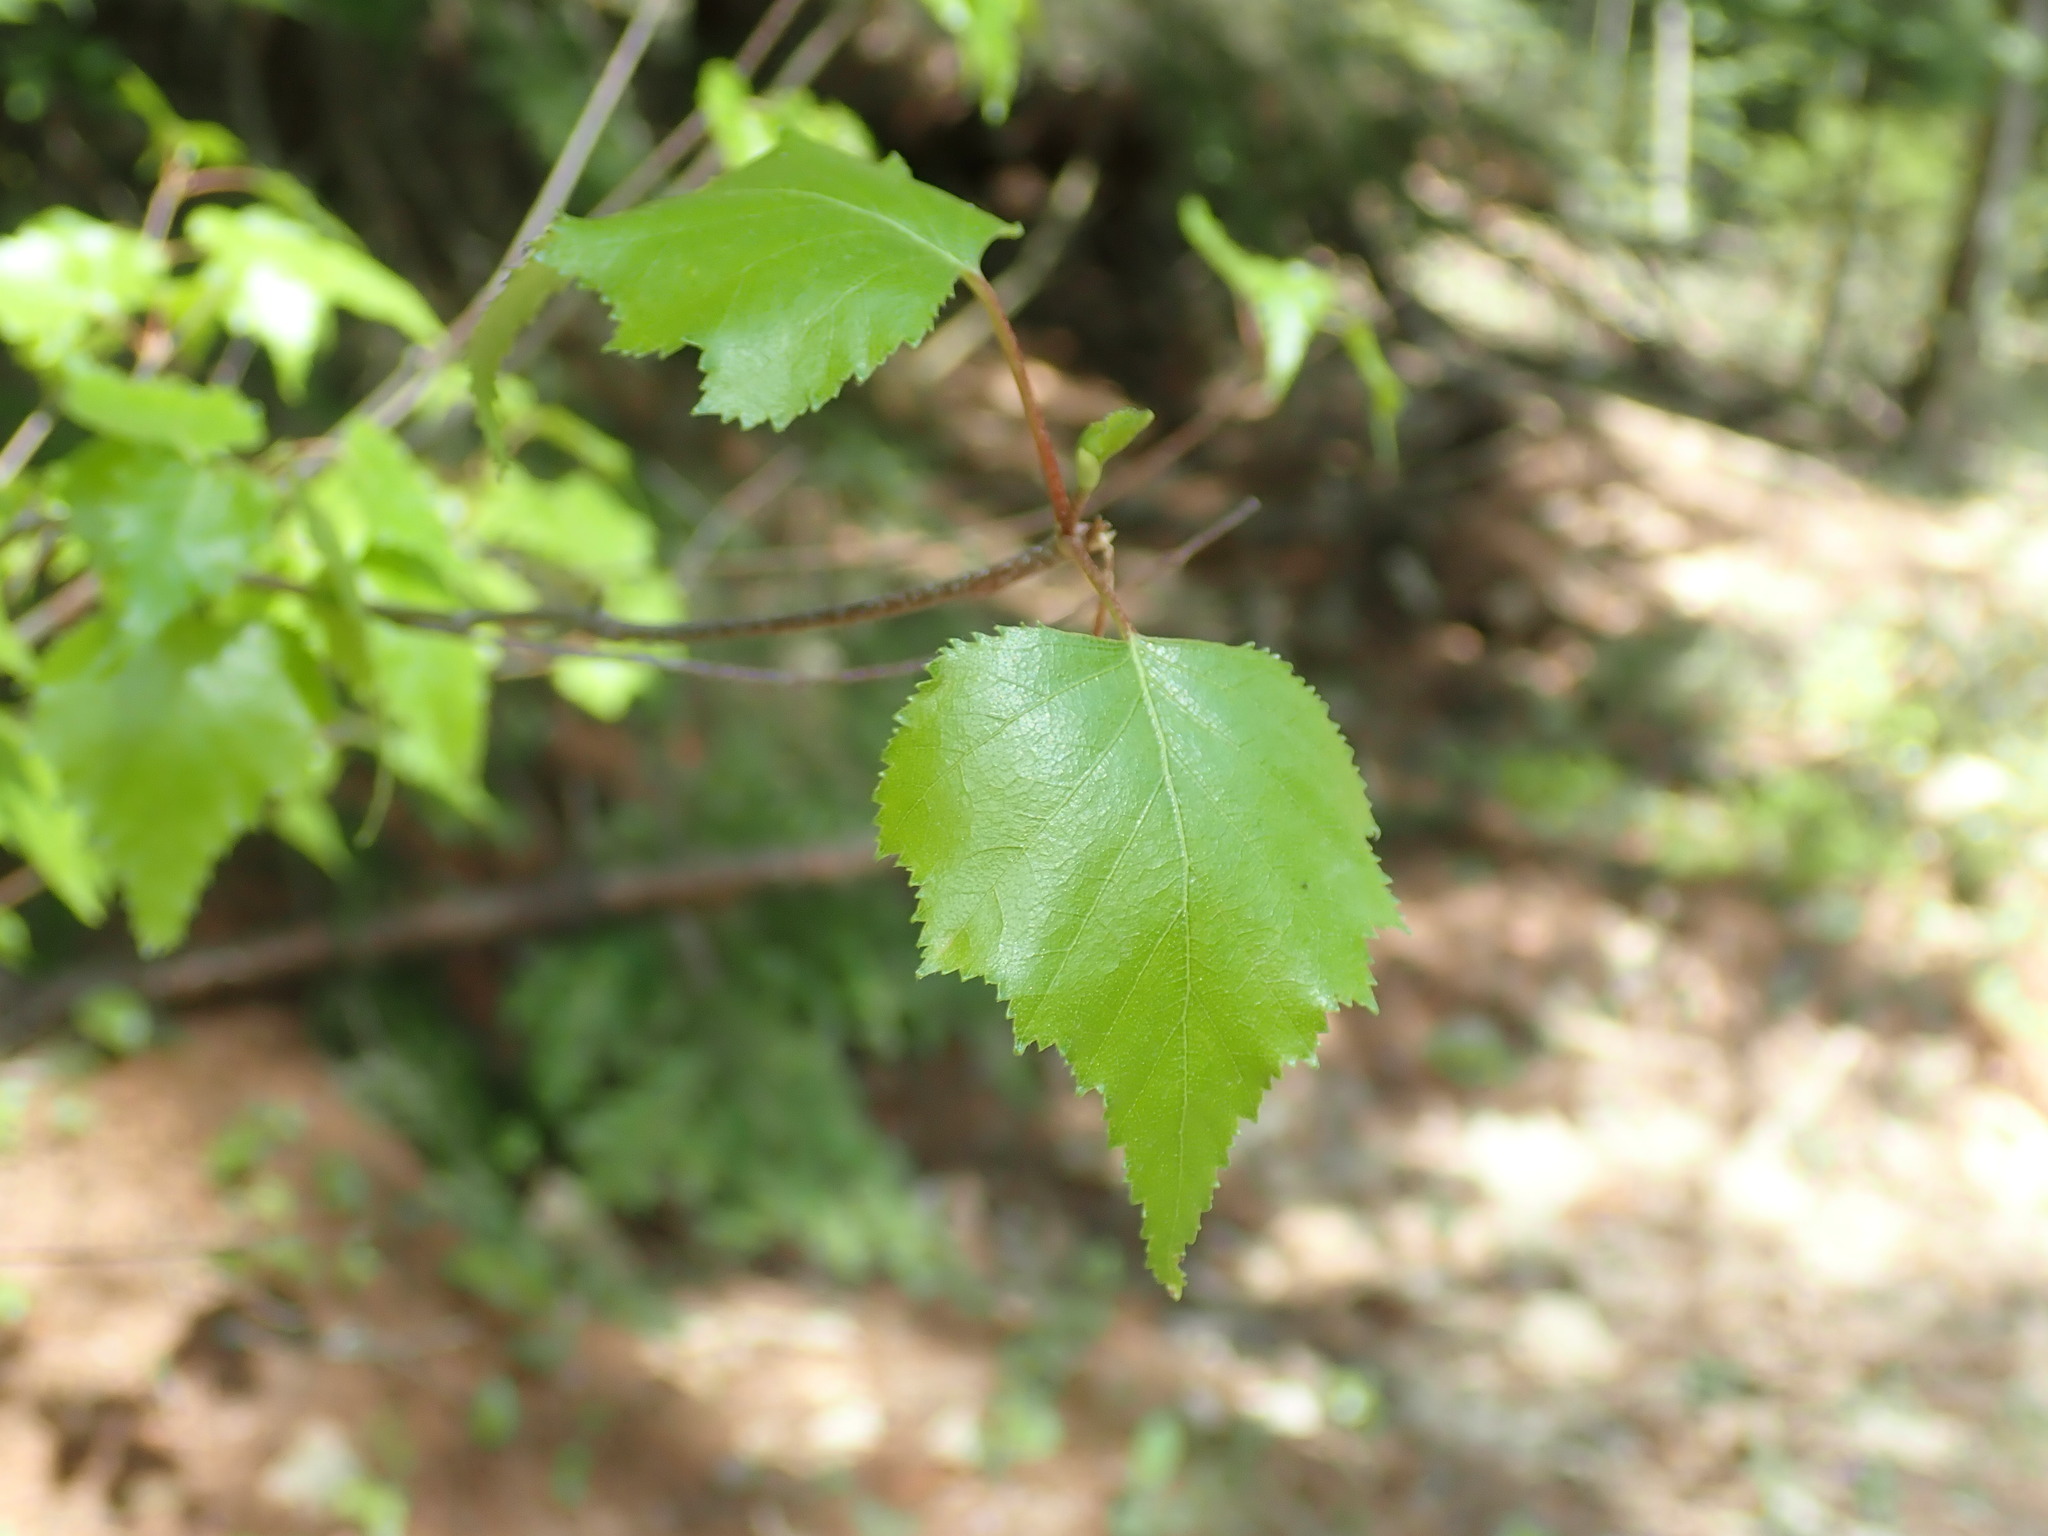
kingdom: Plantae
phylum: Tracheophyta
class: Magnoliopsida
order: Fagales
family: Betulaceae
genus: Betula
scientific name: Betula populifolia
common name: Fire birch
